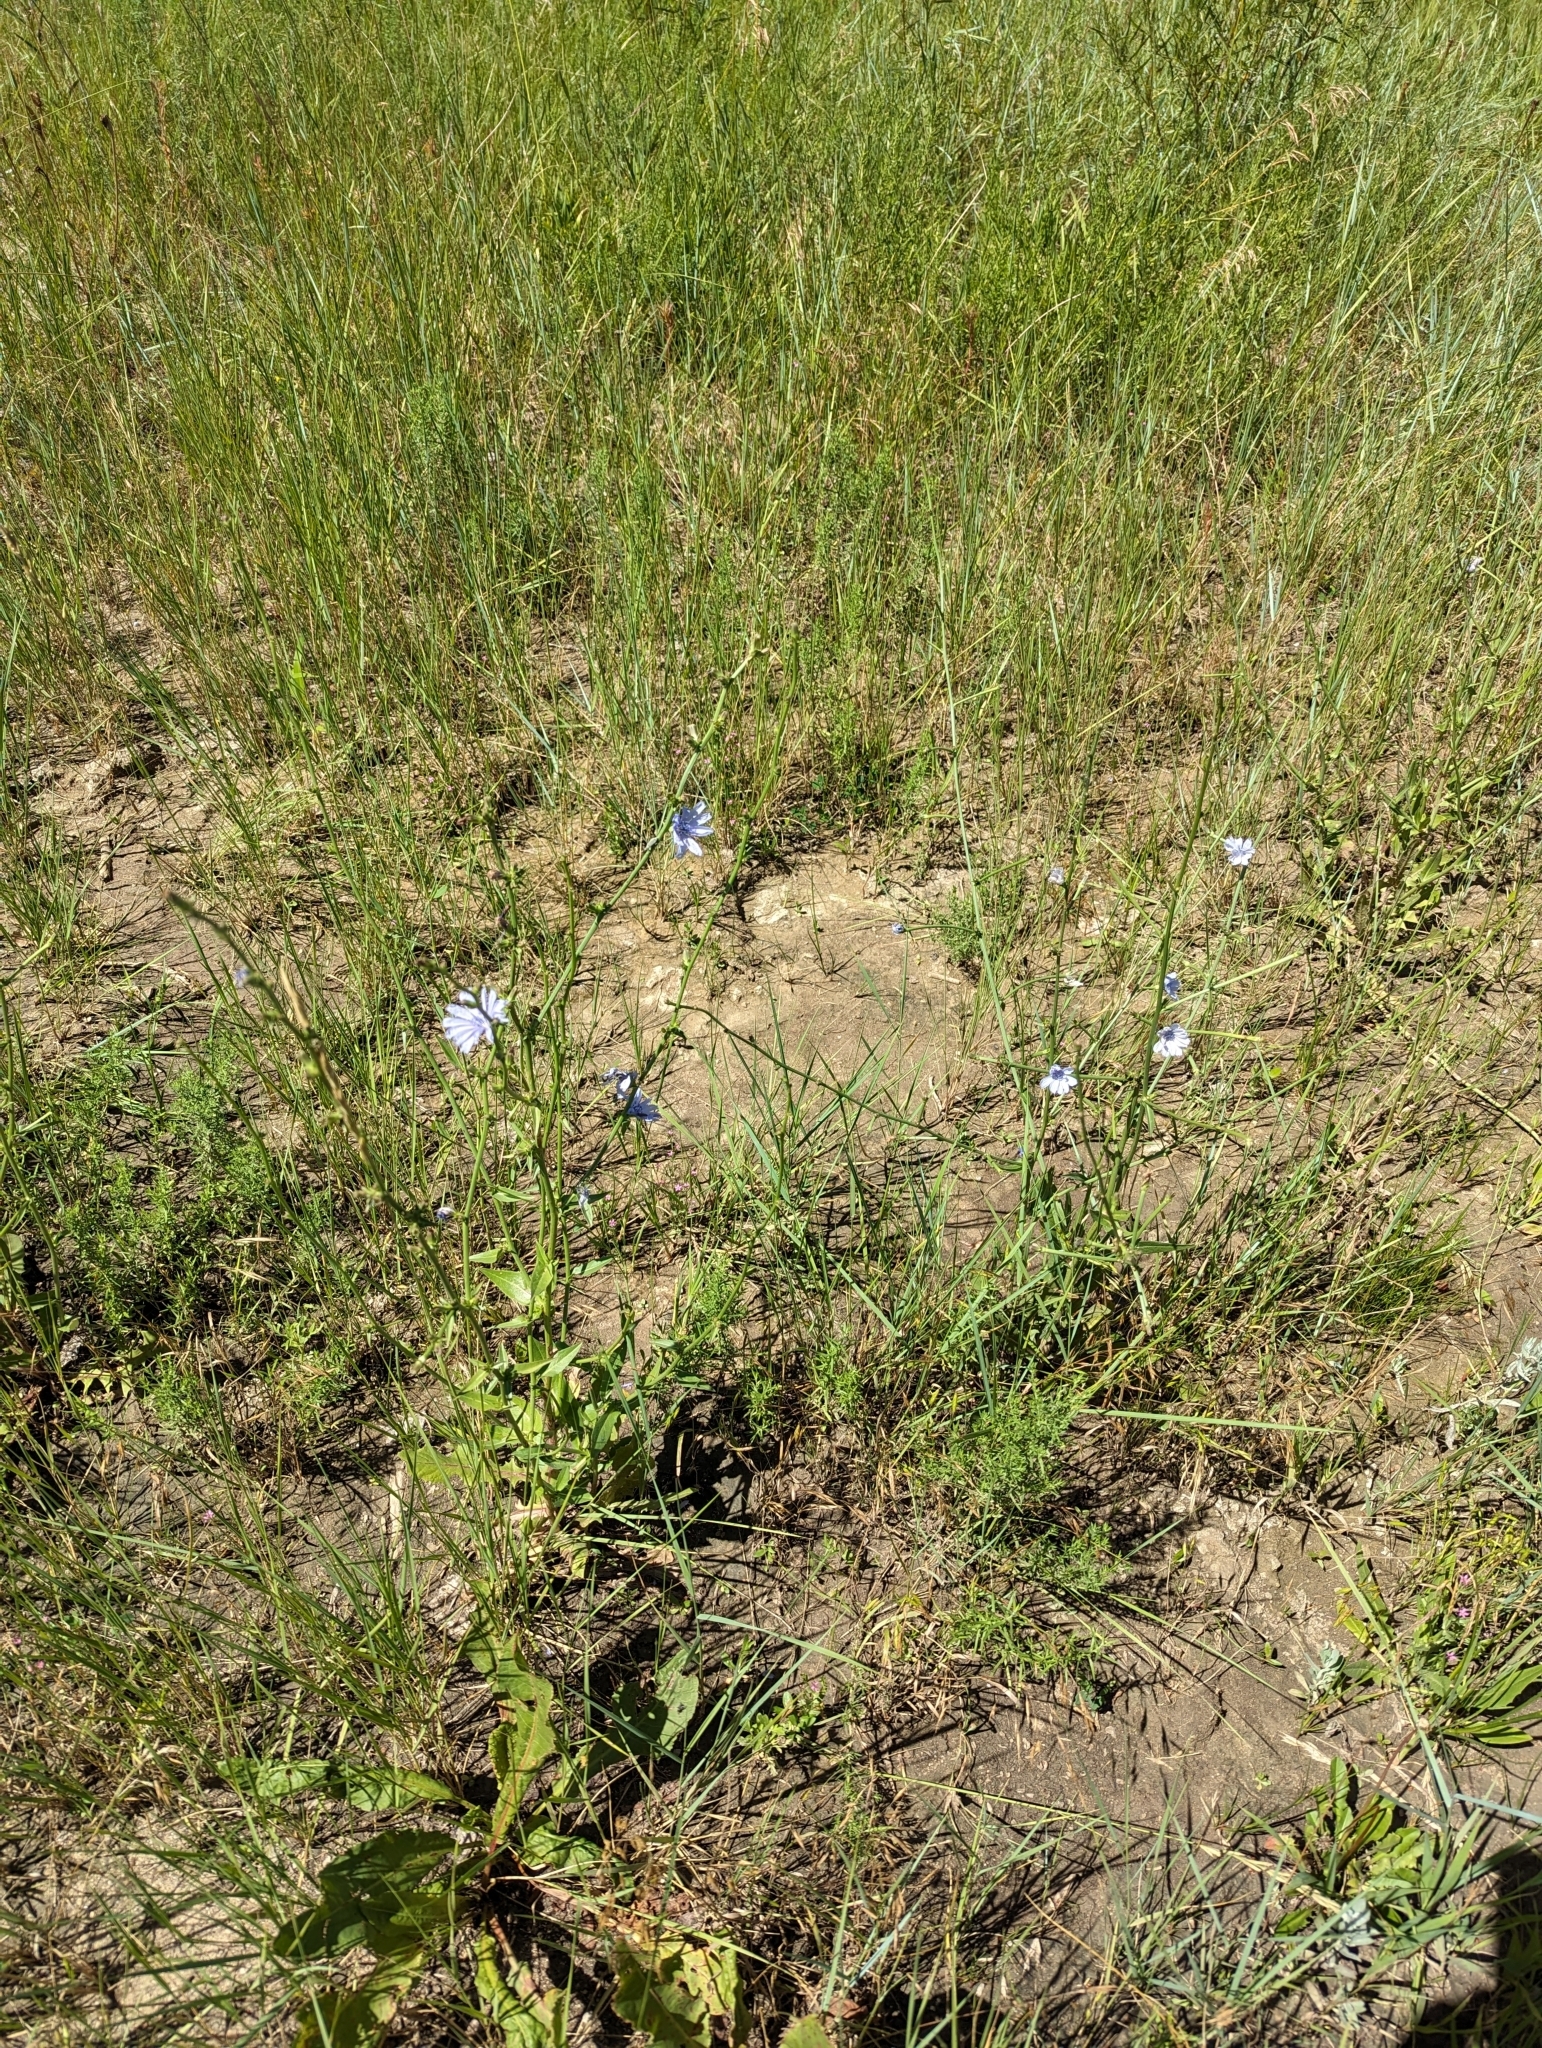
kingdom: Plantae
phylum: Tracheophyta
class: Magnoliopsida
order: Asterales
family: Asteraceae
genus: Cichorium
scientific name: Cichorium intybus
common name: Chicory
